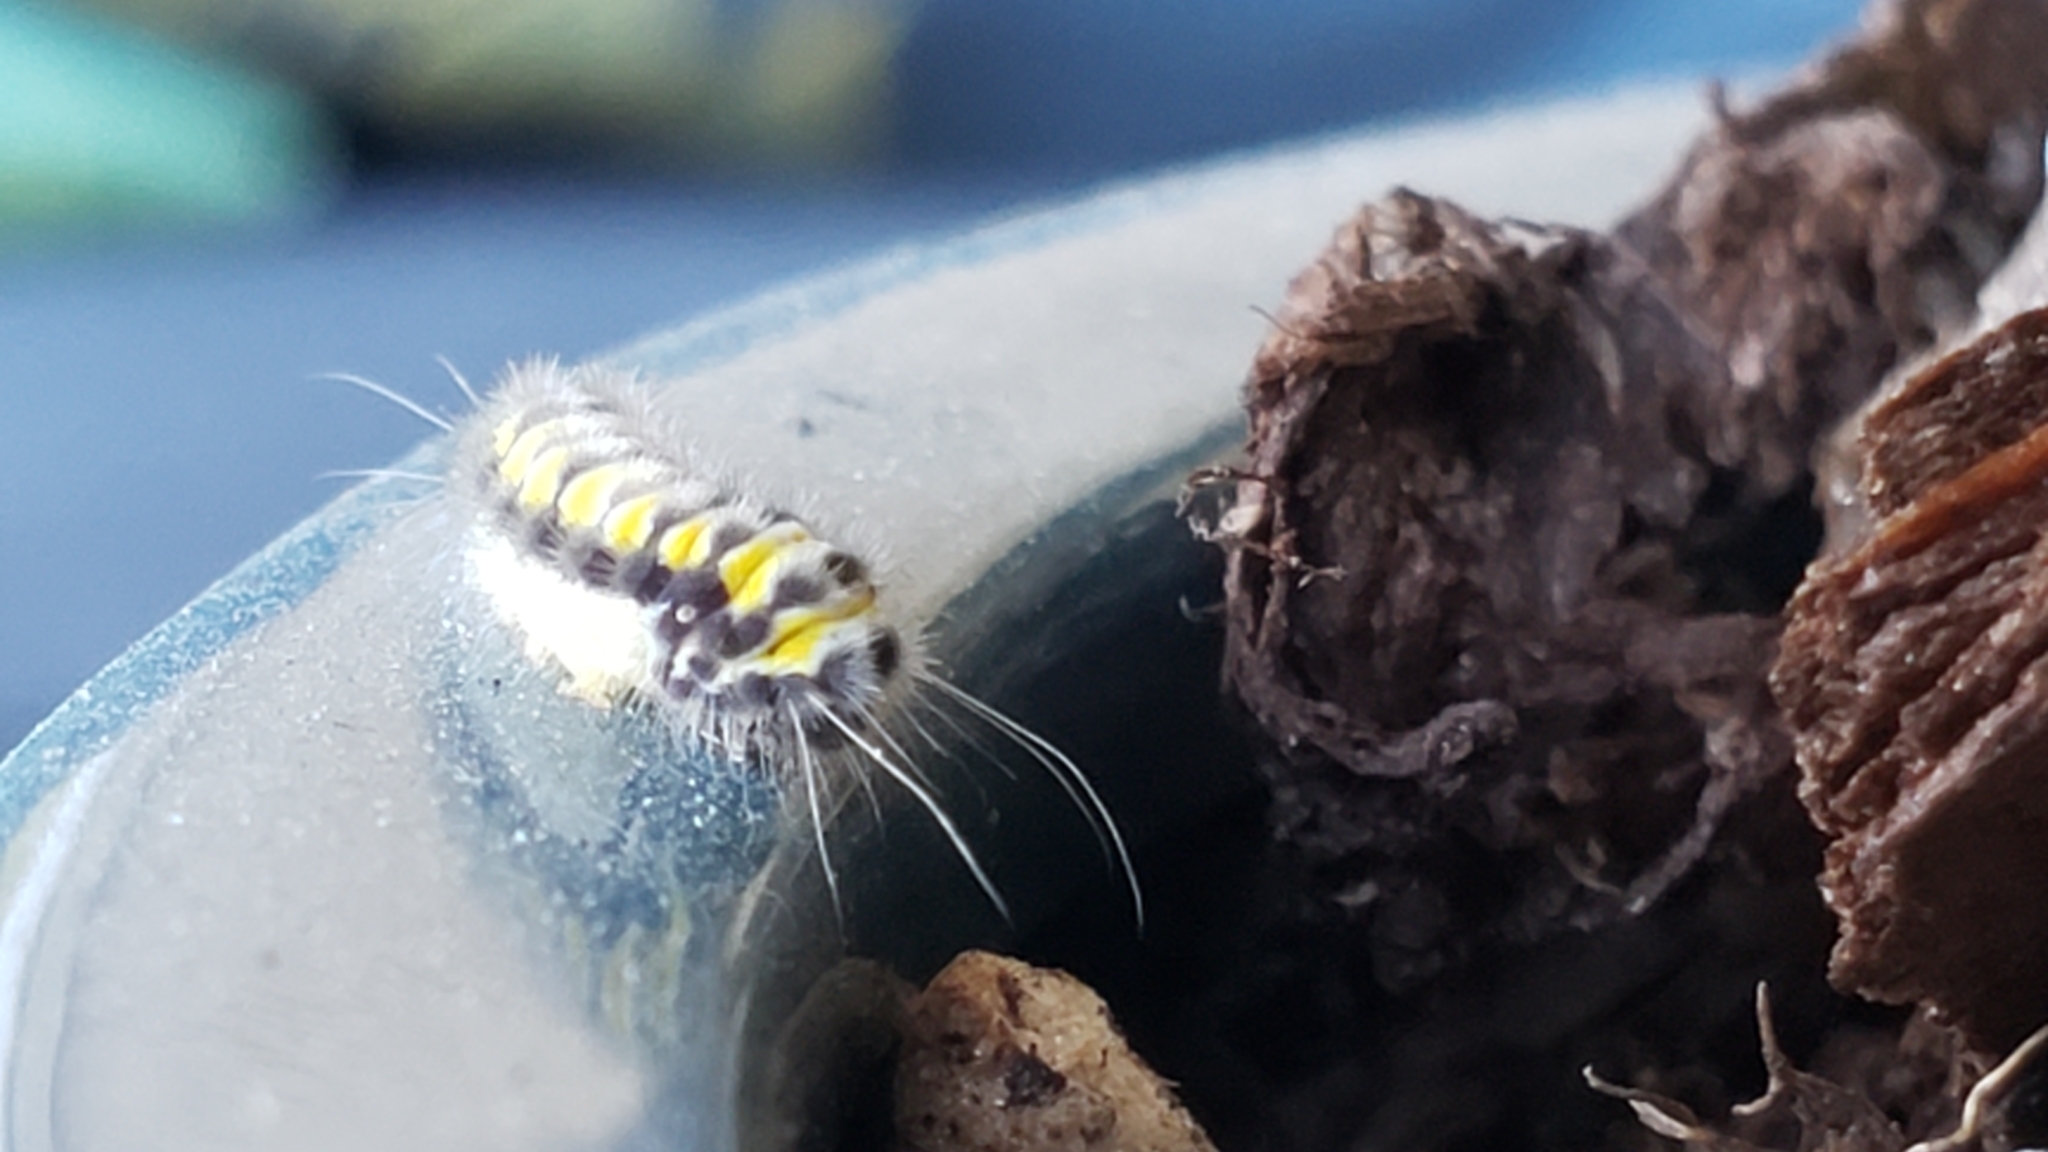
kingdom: Animalia
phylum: Arthropoda
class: Insecta
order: Lepidoptera
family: Zygaenidae
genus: Harrisina
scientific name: Harrisina americana
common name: Grapeleaf skeletonizer moth
